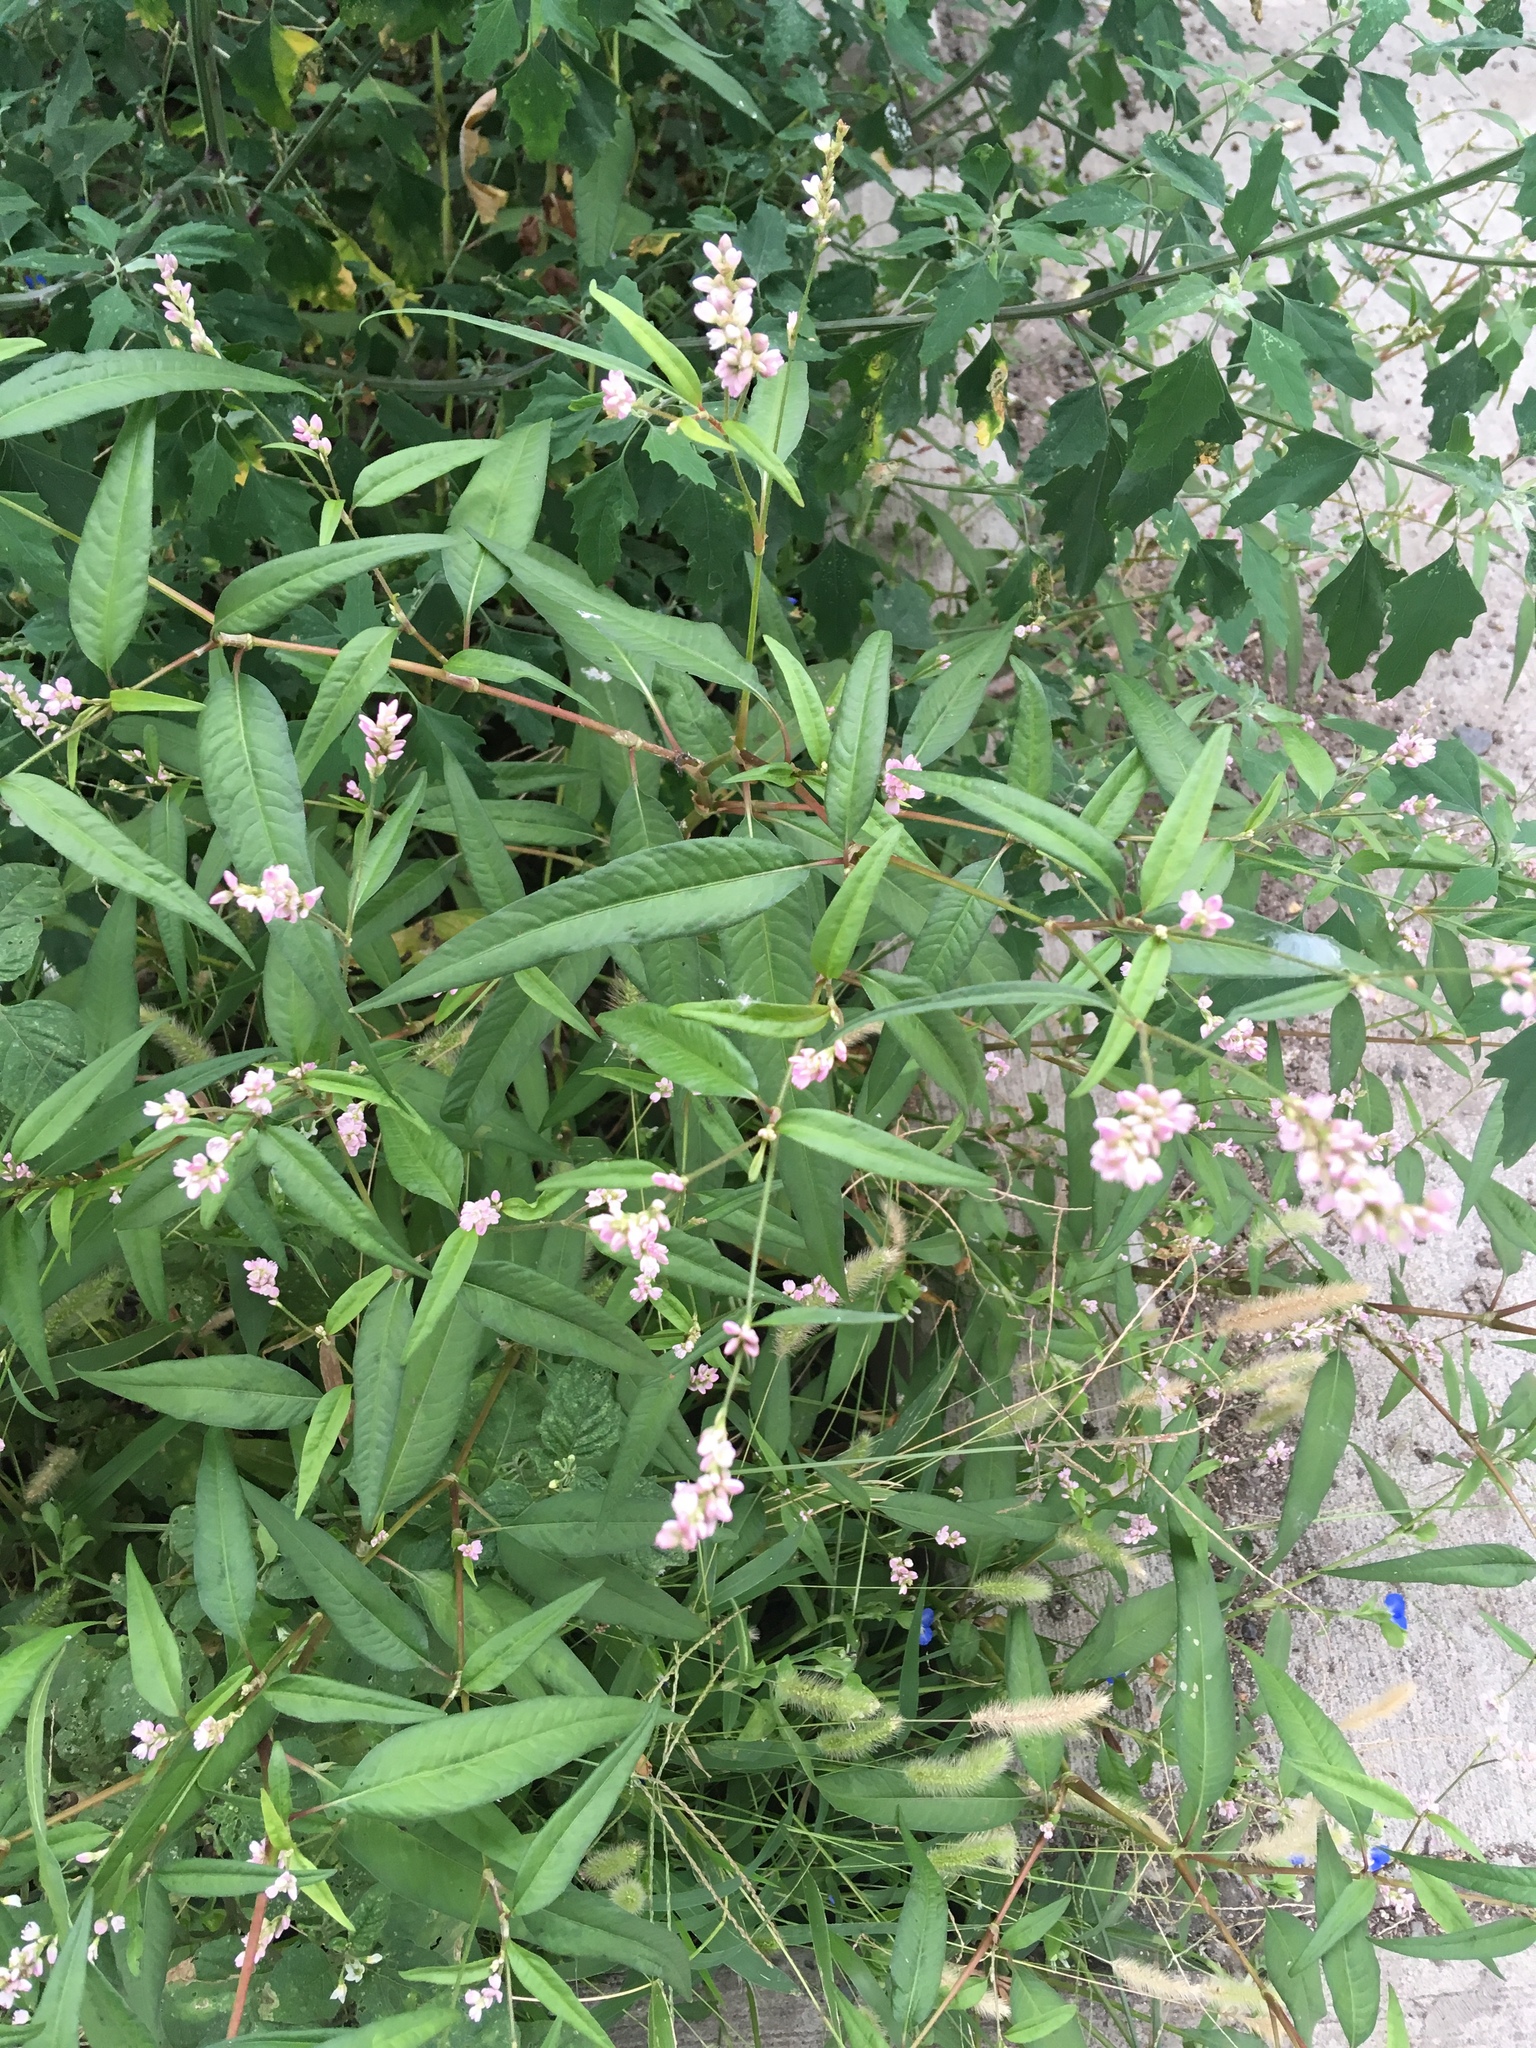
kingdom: Plantae
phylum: Tracheophyta
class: Magnoliopsida
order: Caryophyllales
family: Polygonaceae
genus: Persicaria
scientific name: Persicaria pensylvanica
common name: Pinkweed
